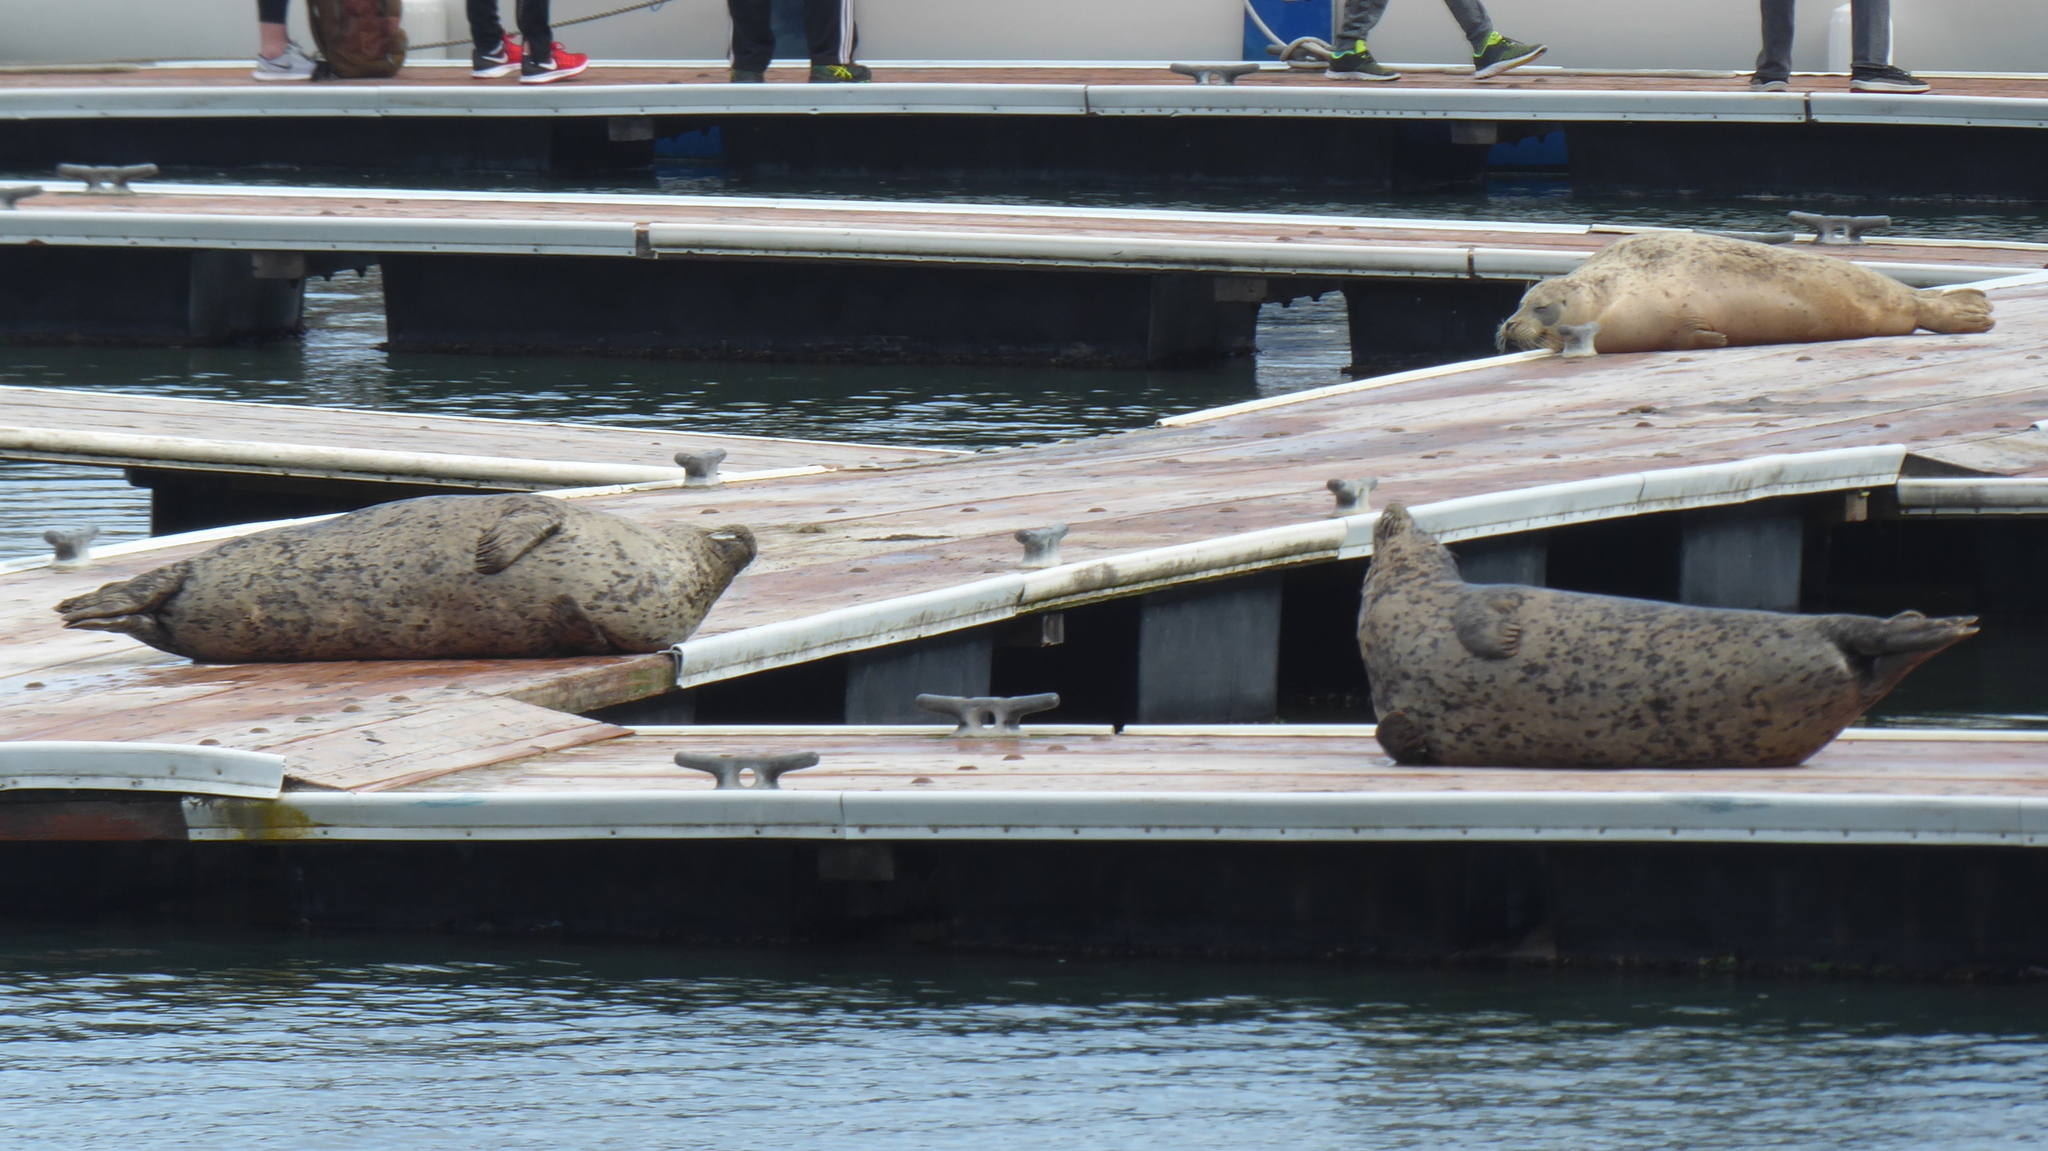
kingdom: Animalia
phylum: Chordata
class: Mammalia
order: Carnivora
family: Phocidae
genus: Phoca
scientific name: Phoca vitulina
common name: Harbor seal
